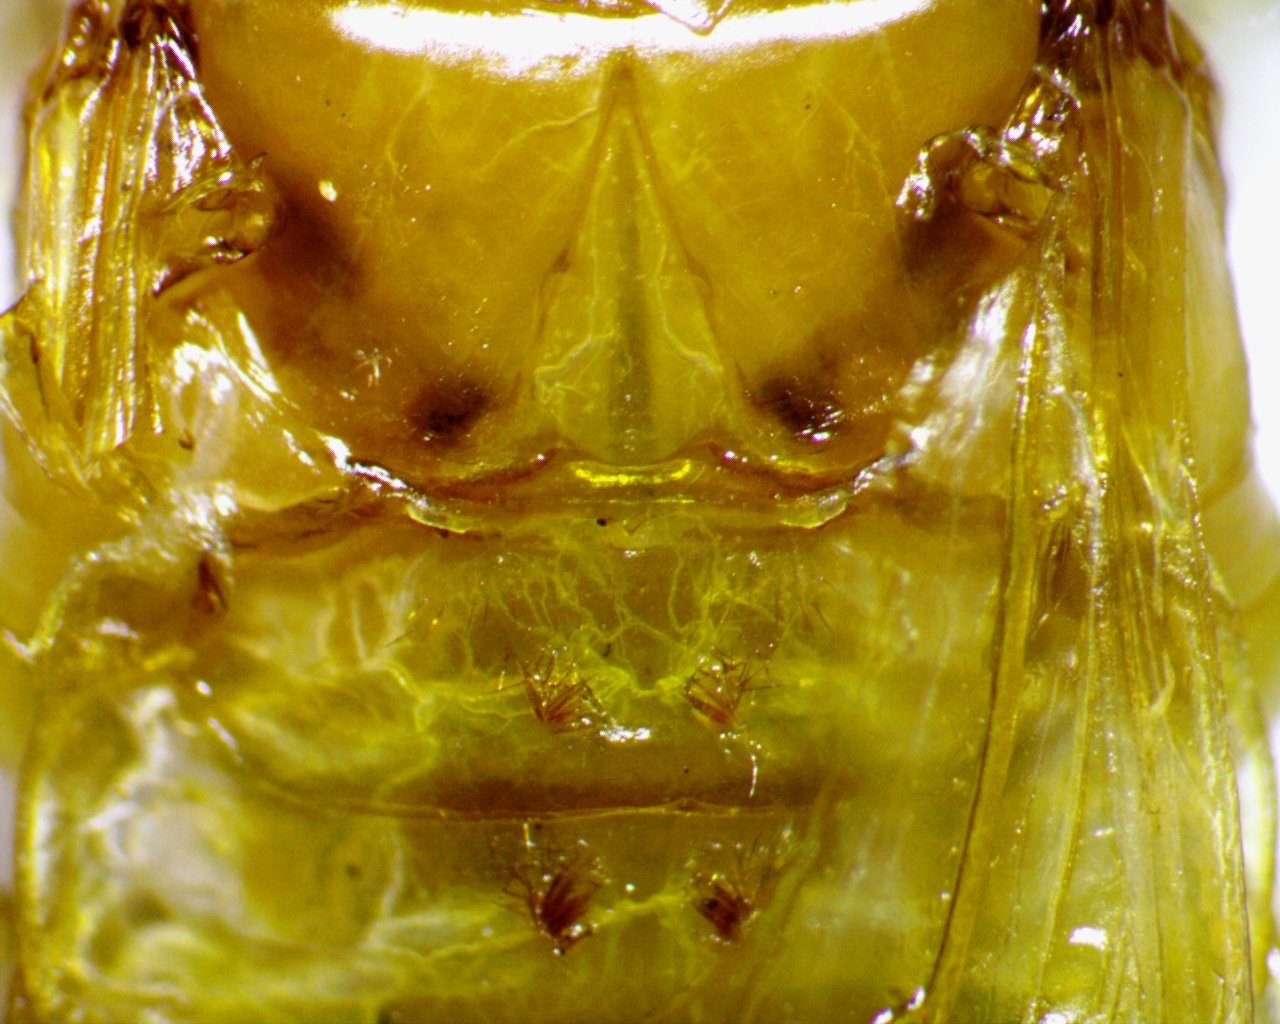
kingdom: Animalia
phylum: Arthropoda
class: Insecta
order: Blattodea
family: Ectobiidae
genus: Parcoblatta
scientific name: Parcoblatta virginica
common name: Virginia wood cockroach
